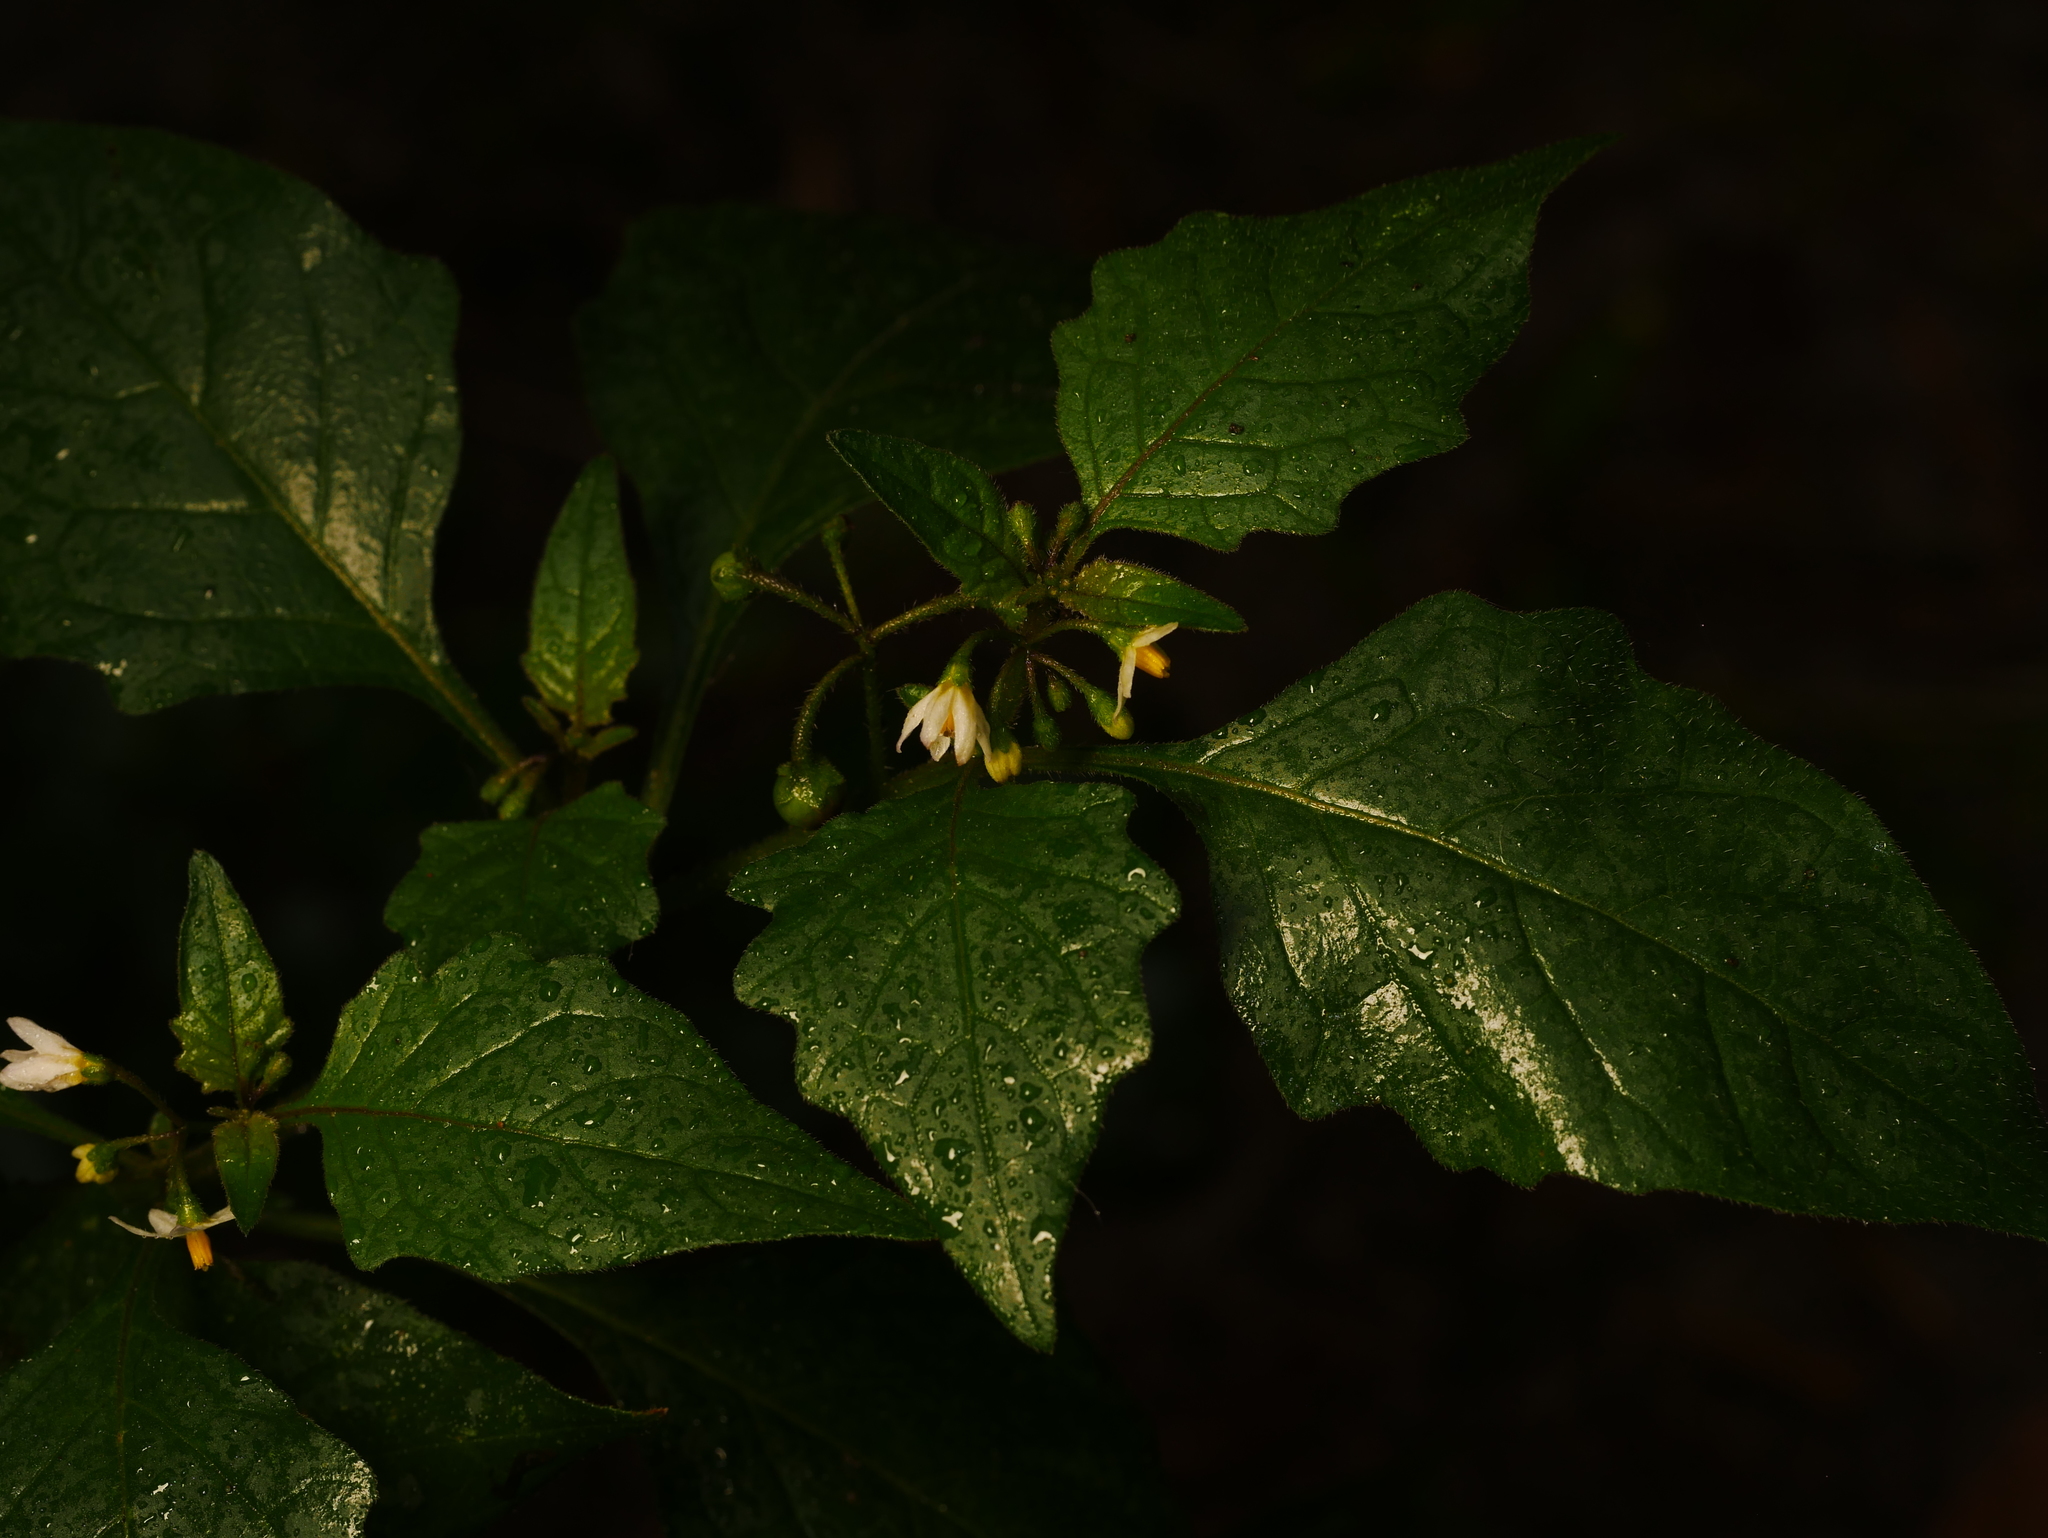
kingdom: Plantae
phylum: Tracheophyta
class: Magnoliopsida
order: Solanales
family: Solanaceae
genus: Solanum
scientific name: Solanum nigrum
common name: Black nightshade
